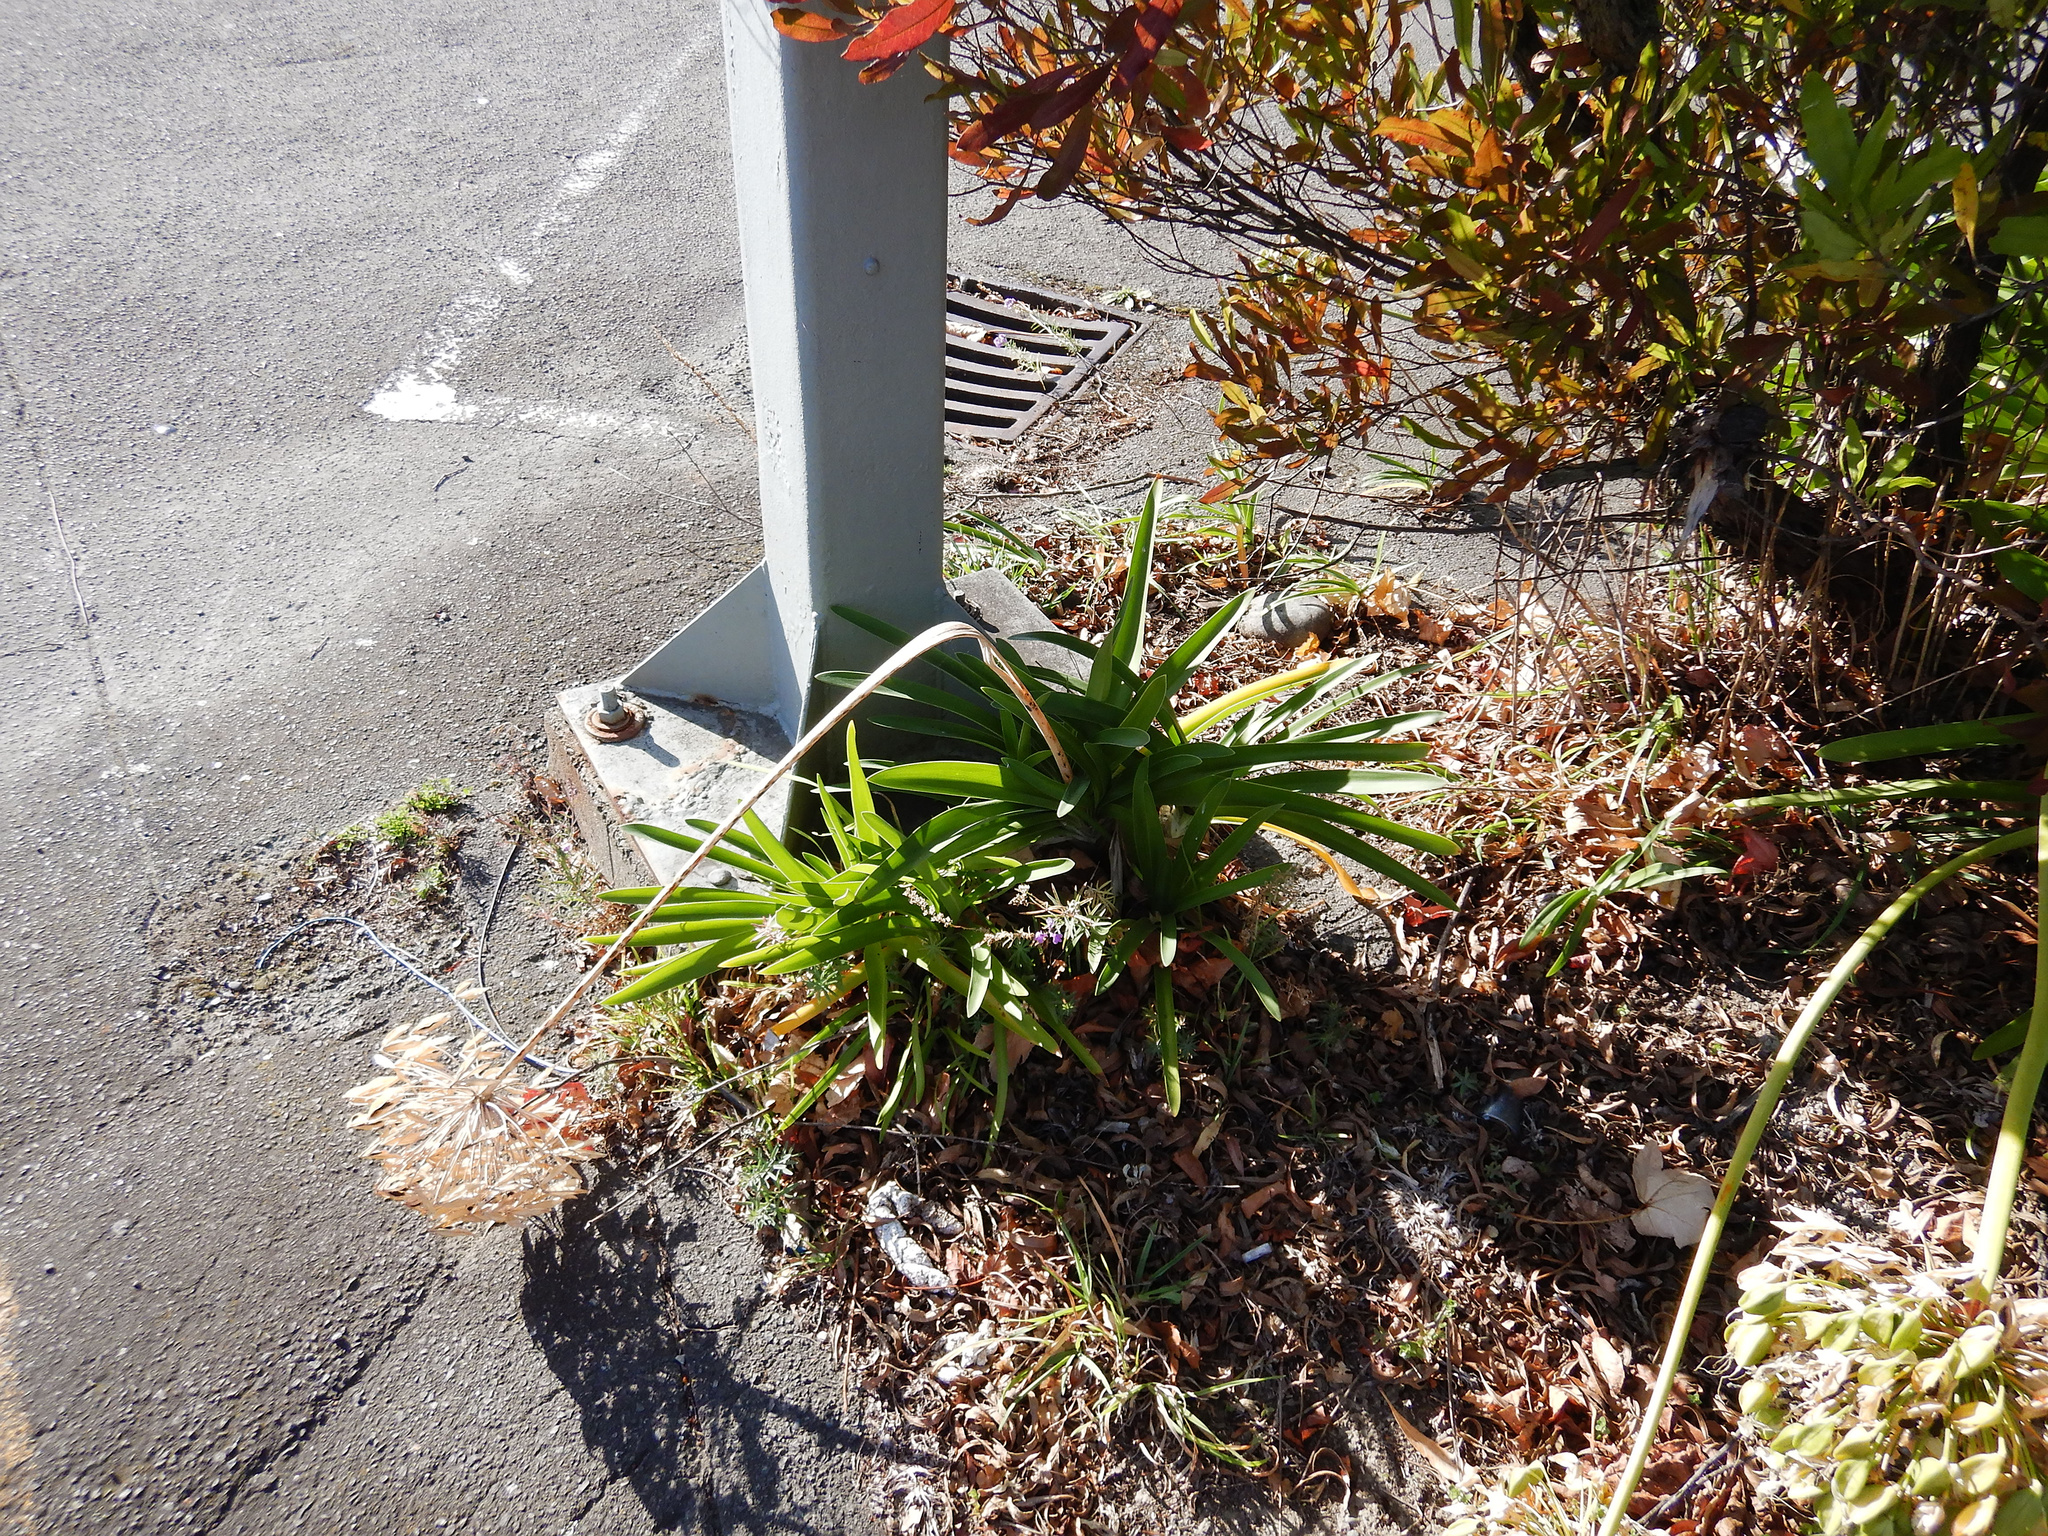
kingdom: Plantae
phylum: Tracheophyta
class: Liliopsida
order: Asparagales
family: Amaryllidaceae
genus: Agapanthus
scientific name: Agapanthus praecox
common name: African-lily
